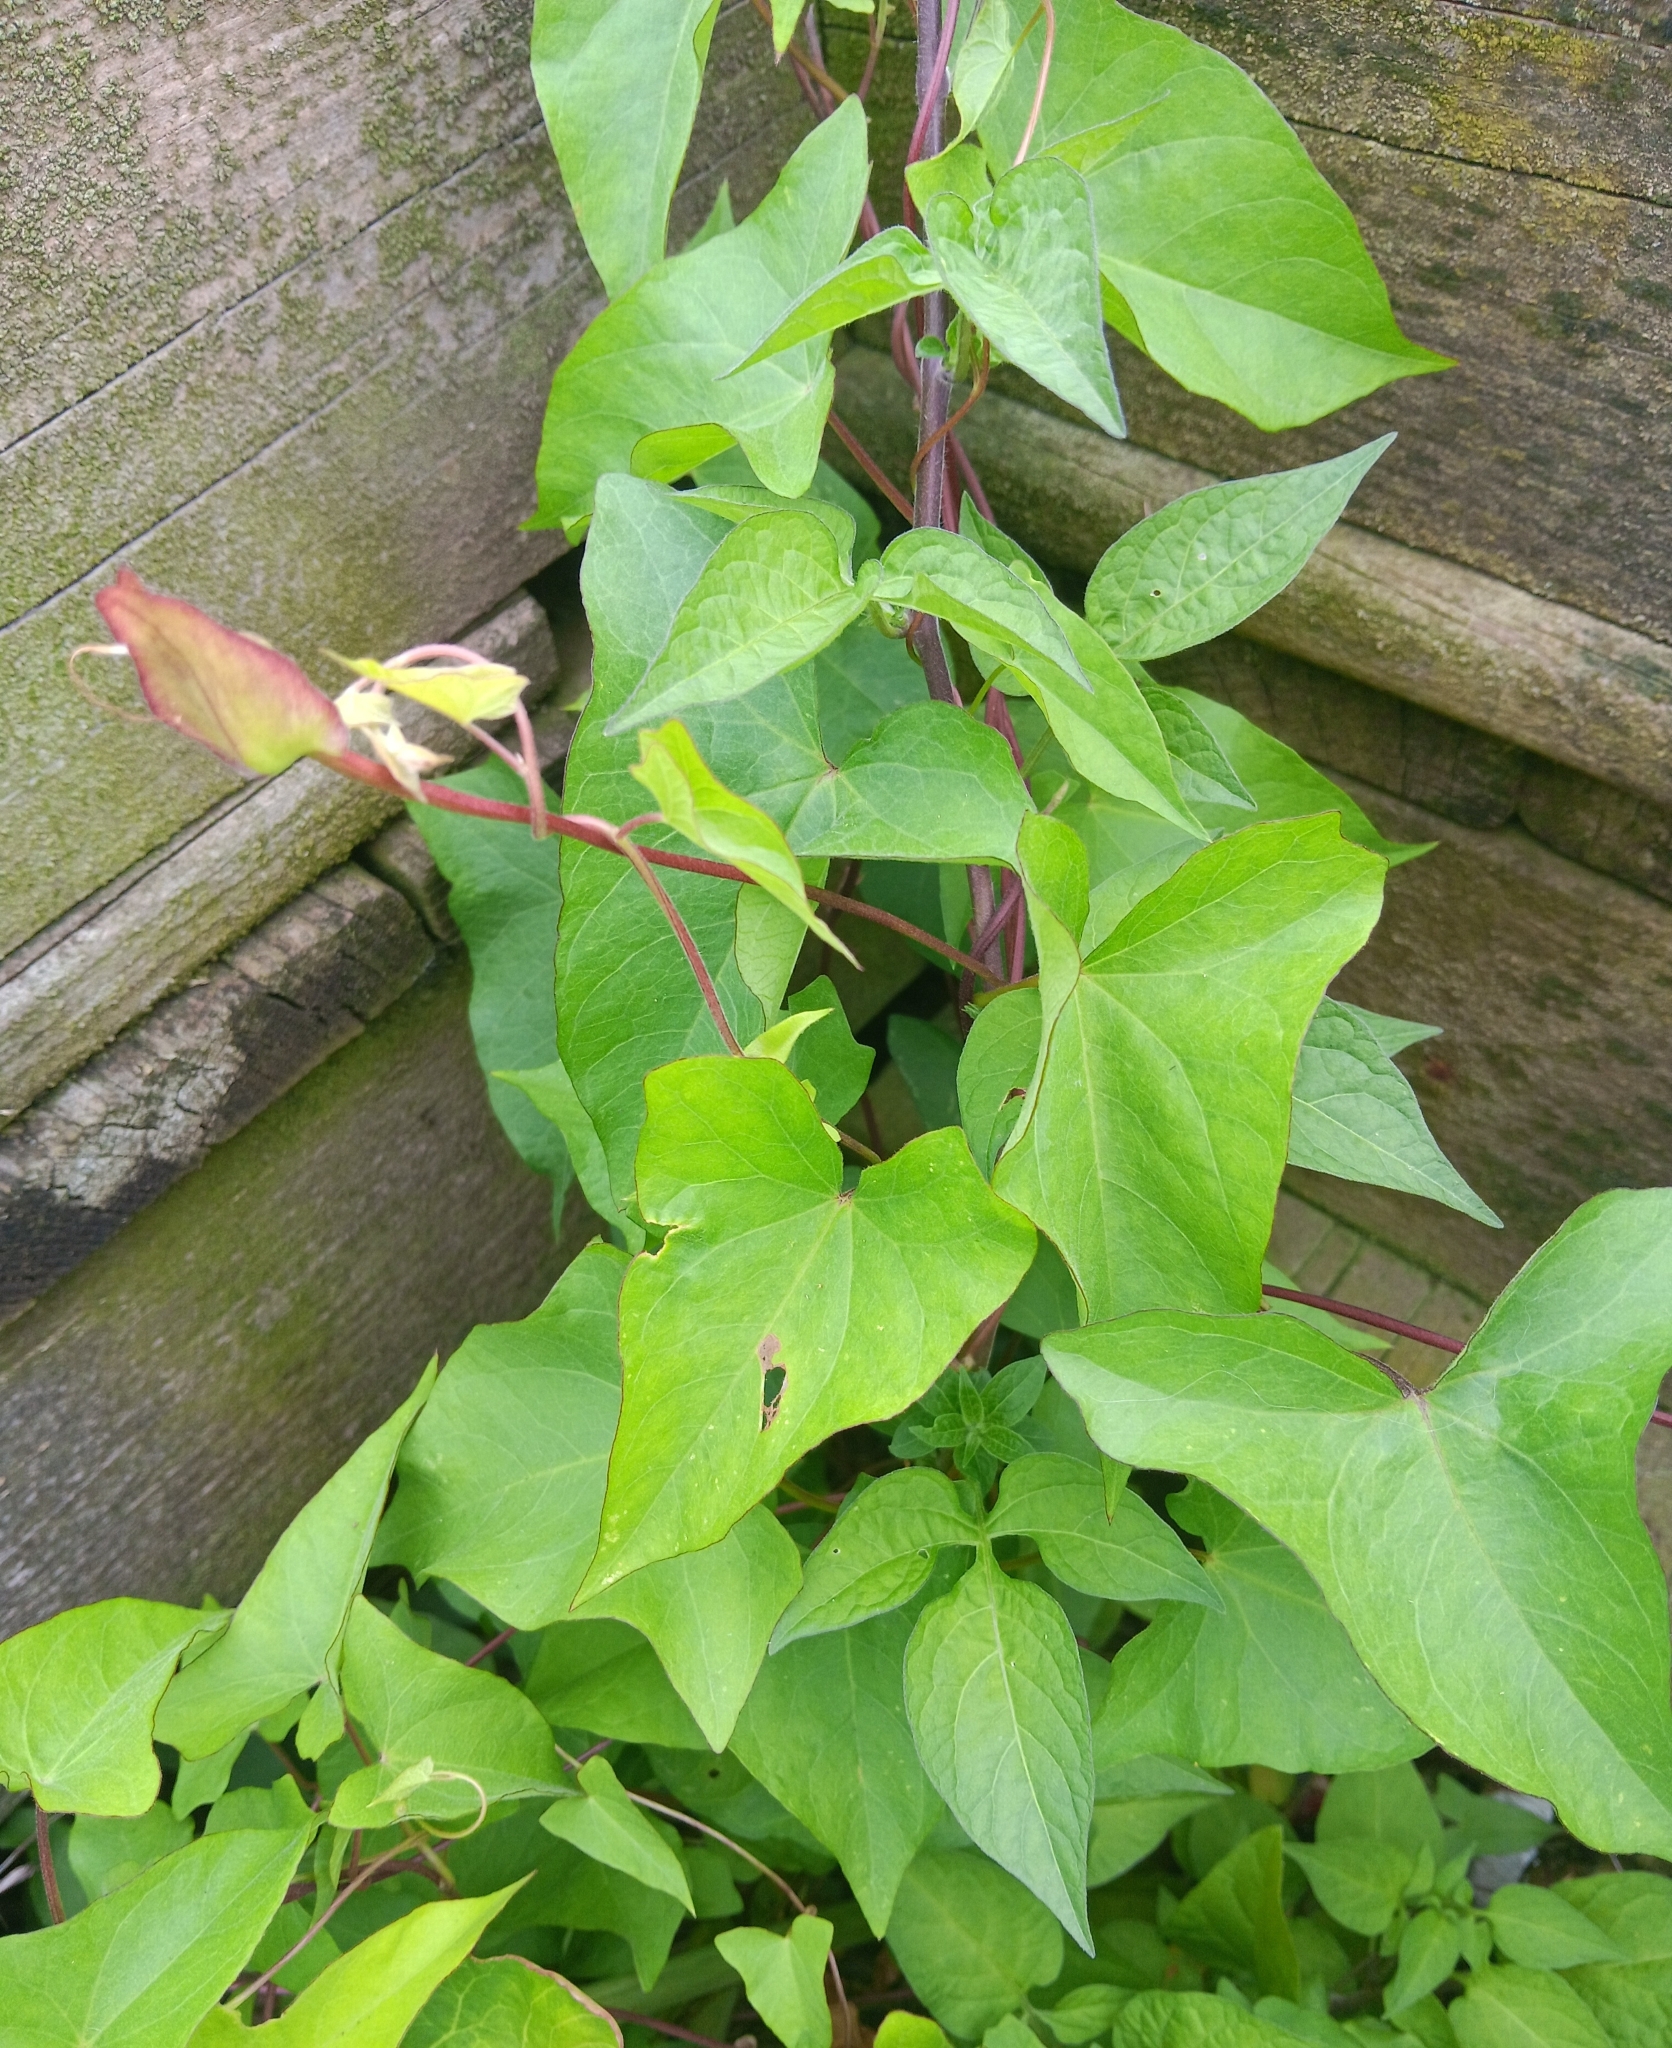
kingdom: Plantae
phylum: Tracheophyta
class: Magnoliopsida
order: Solanales
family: Convolvulaceae
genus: Calystegia
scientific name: Calystegia sepium
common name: Hedge bindweed
